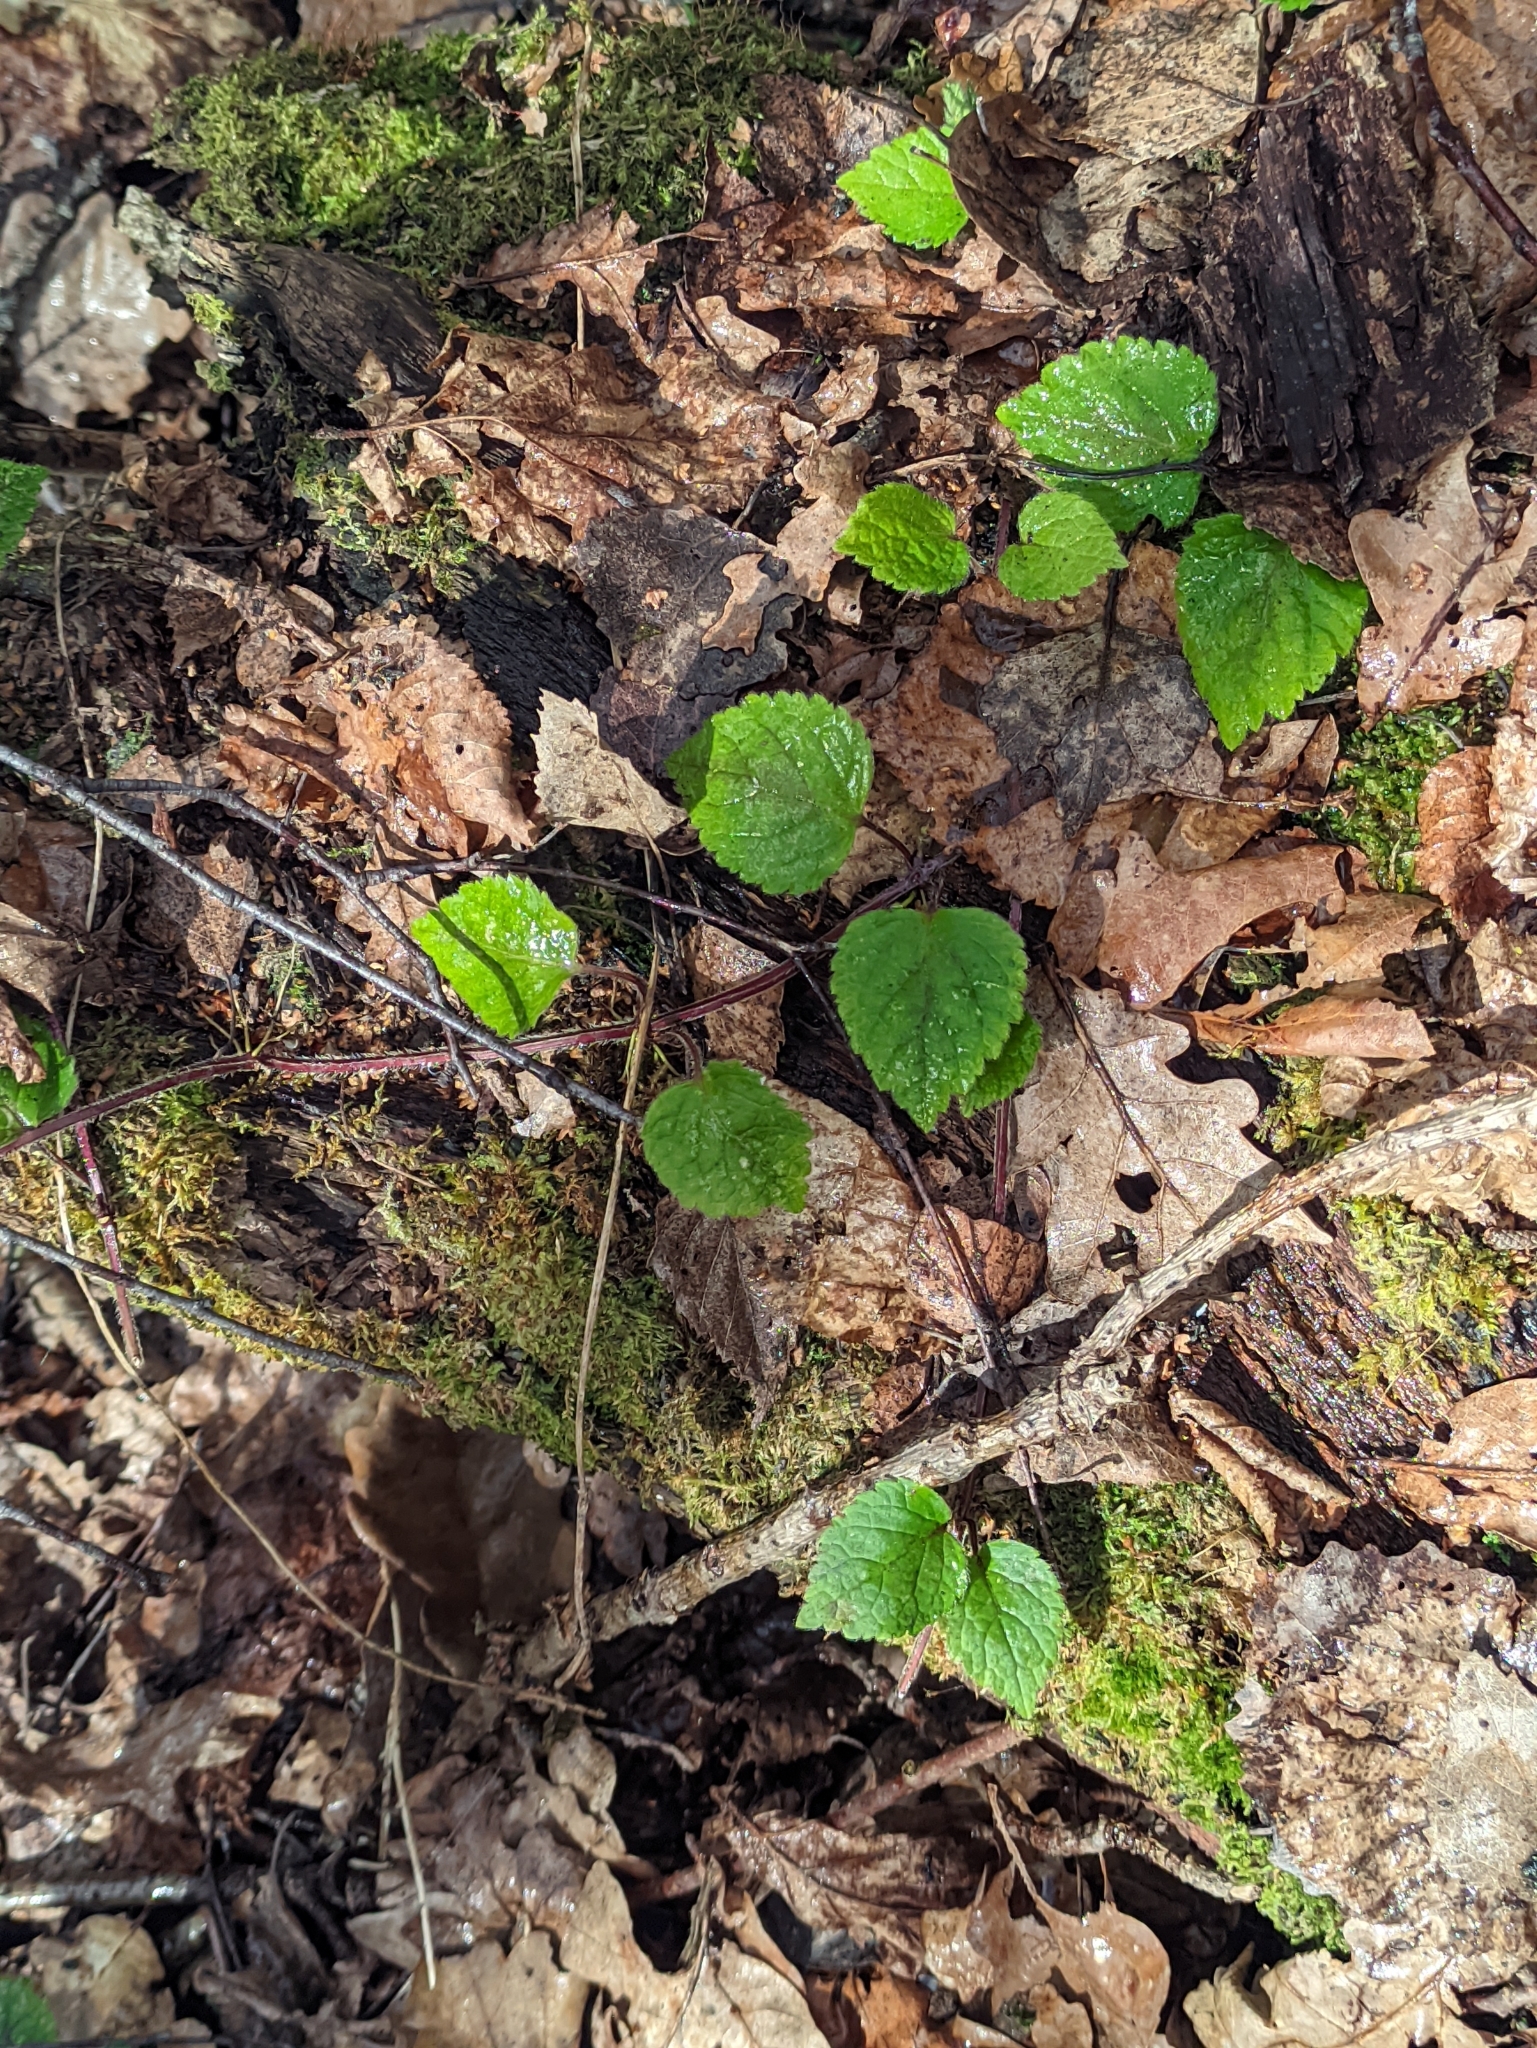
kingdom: Plantae
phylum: Tracheophyta
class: Magnoliopsida
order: Lamiales
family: Lamiaceae
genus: Lamium
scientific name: Lamium galeobdolon
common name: Yellow archangel
